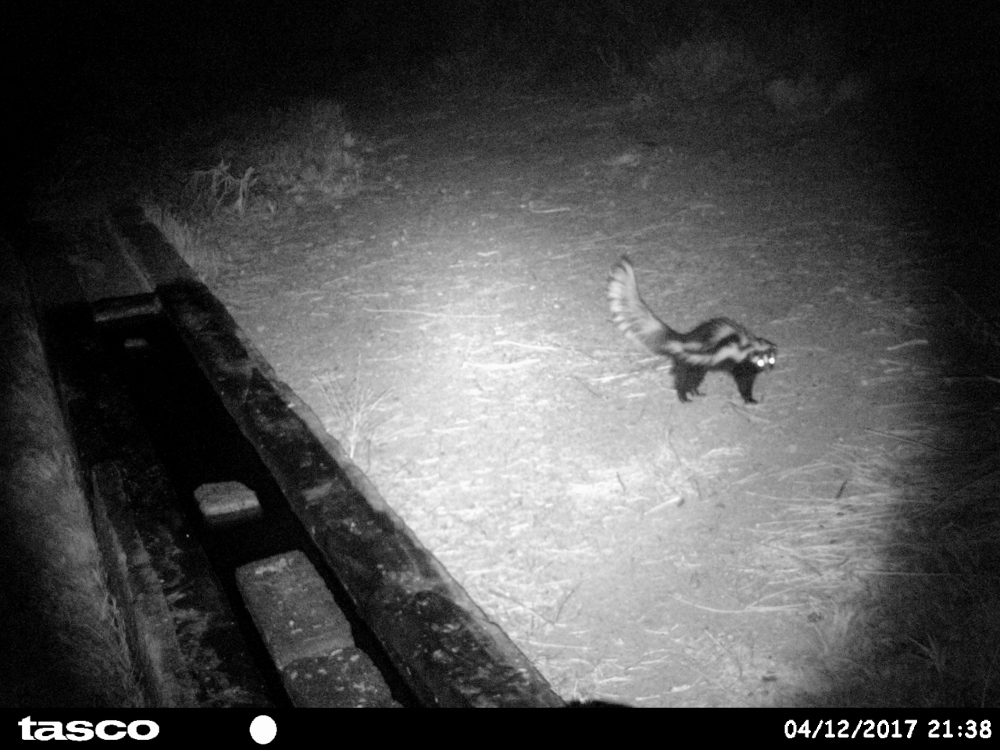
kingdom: Animalia
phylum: Chordata
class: Mammalia
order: Carnivora
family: Mustelidae
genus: Ictonyx
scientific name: Ictonyx striatus
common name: Striped polecat
